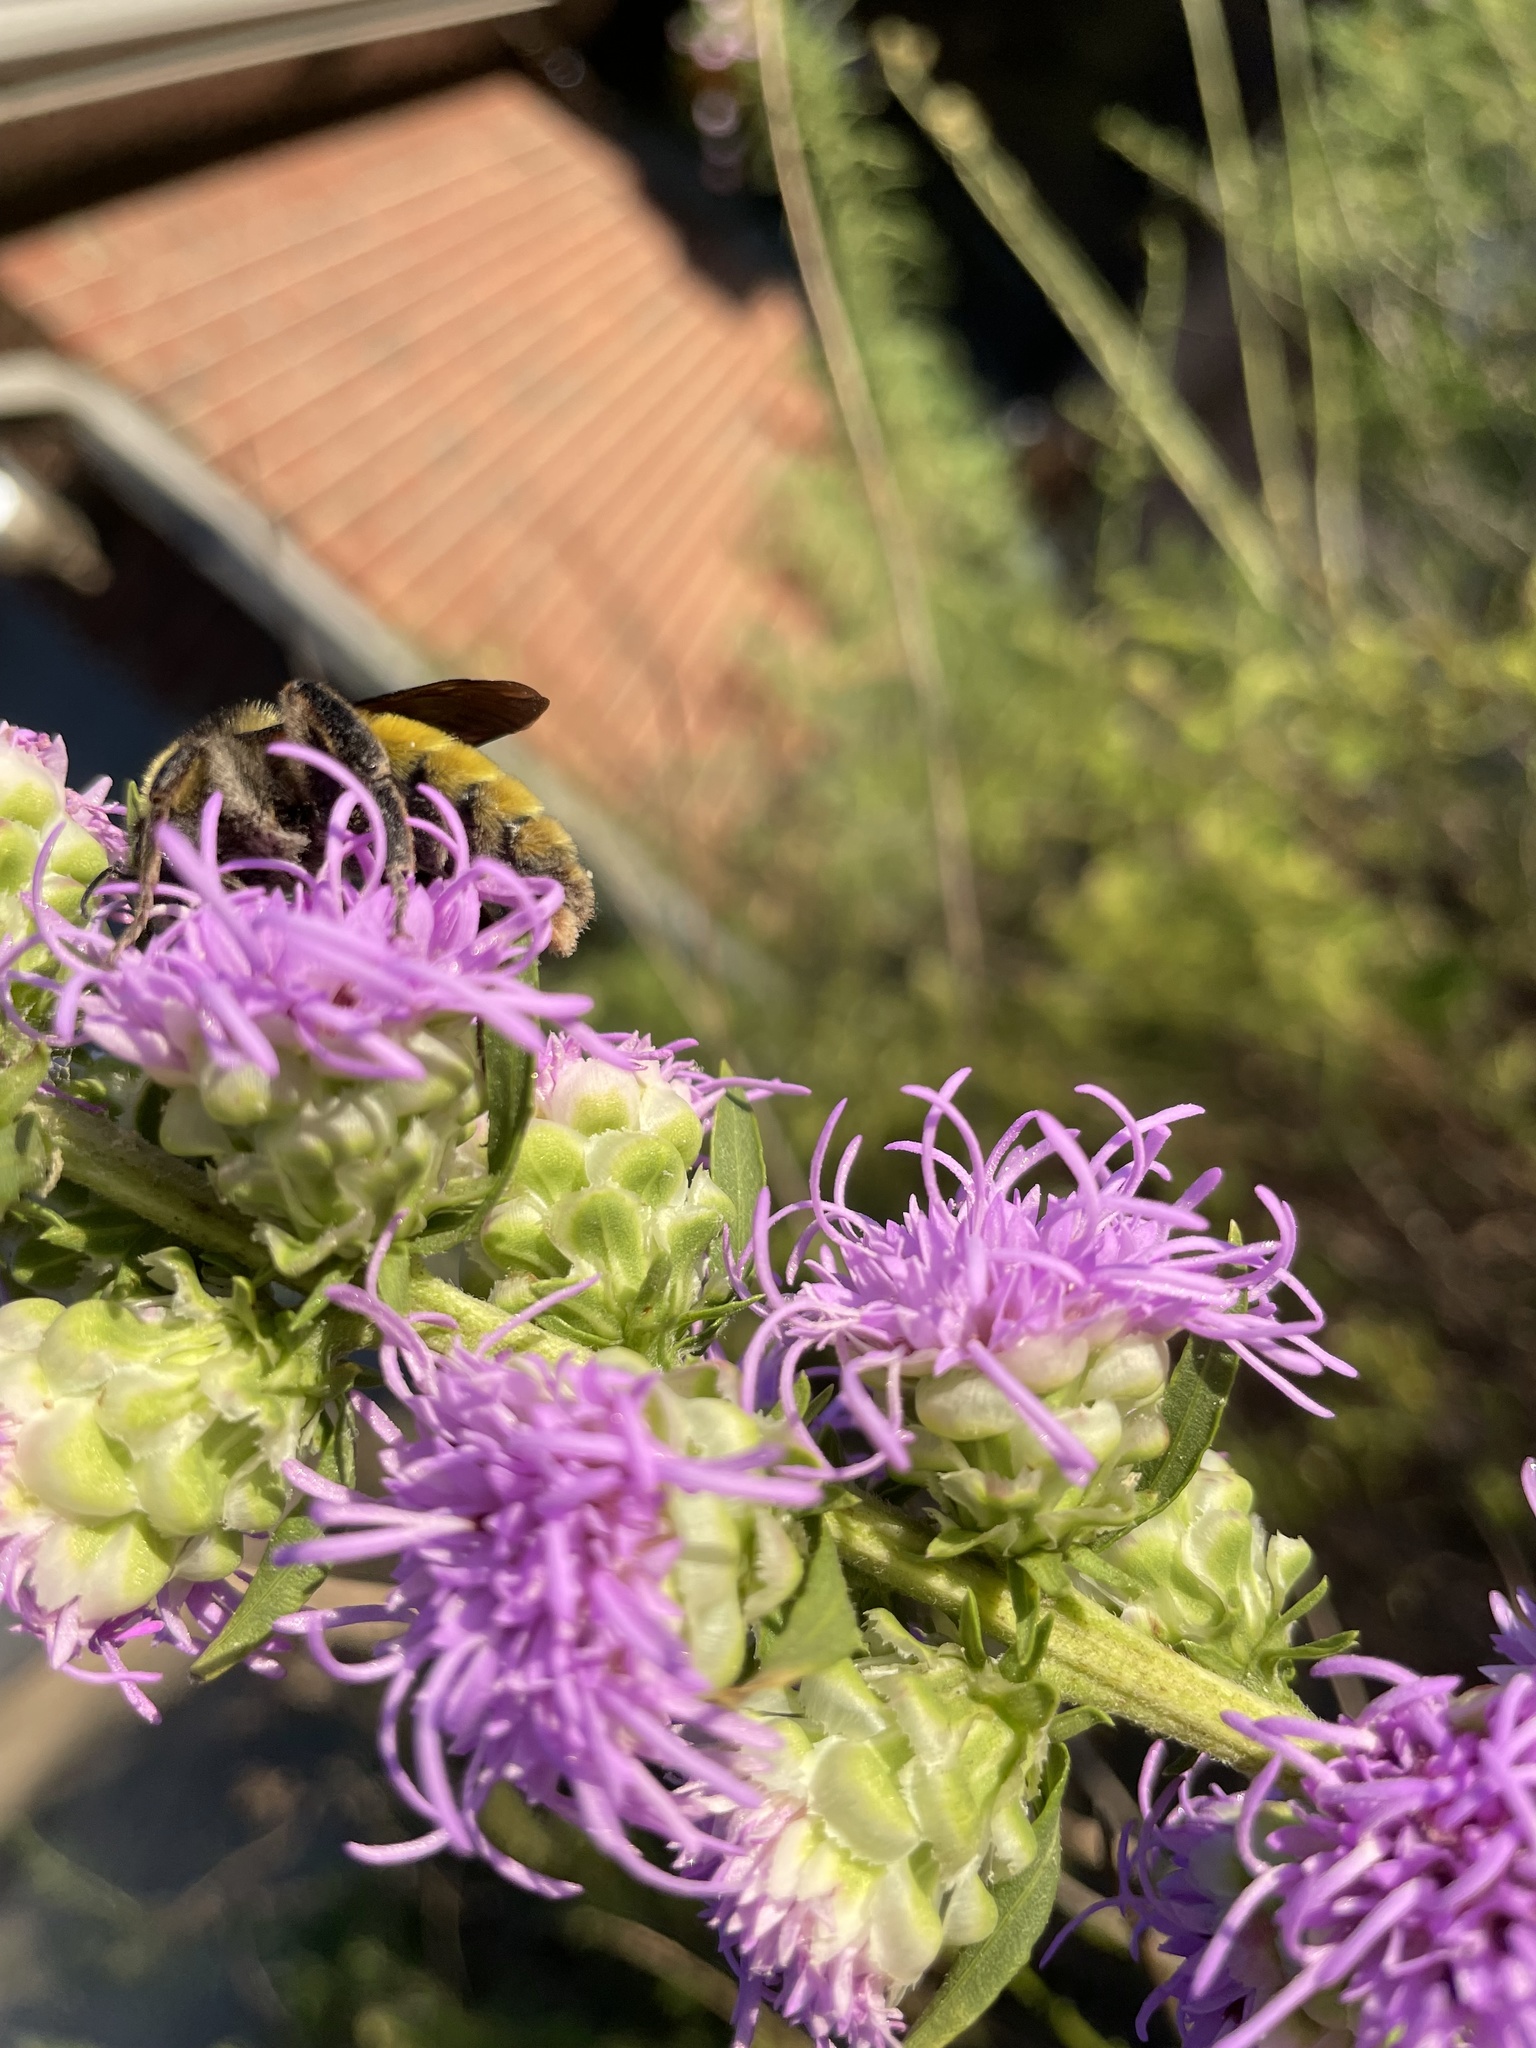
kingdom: Animalia
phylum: Arthropoda
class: Insecta
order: Hymenoptera
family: Apidae
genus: Bombus
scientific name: Bombus pensylvanicus
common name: Bumble bee
